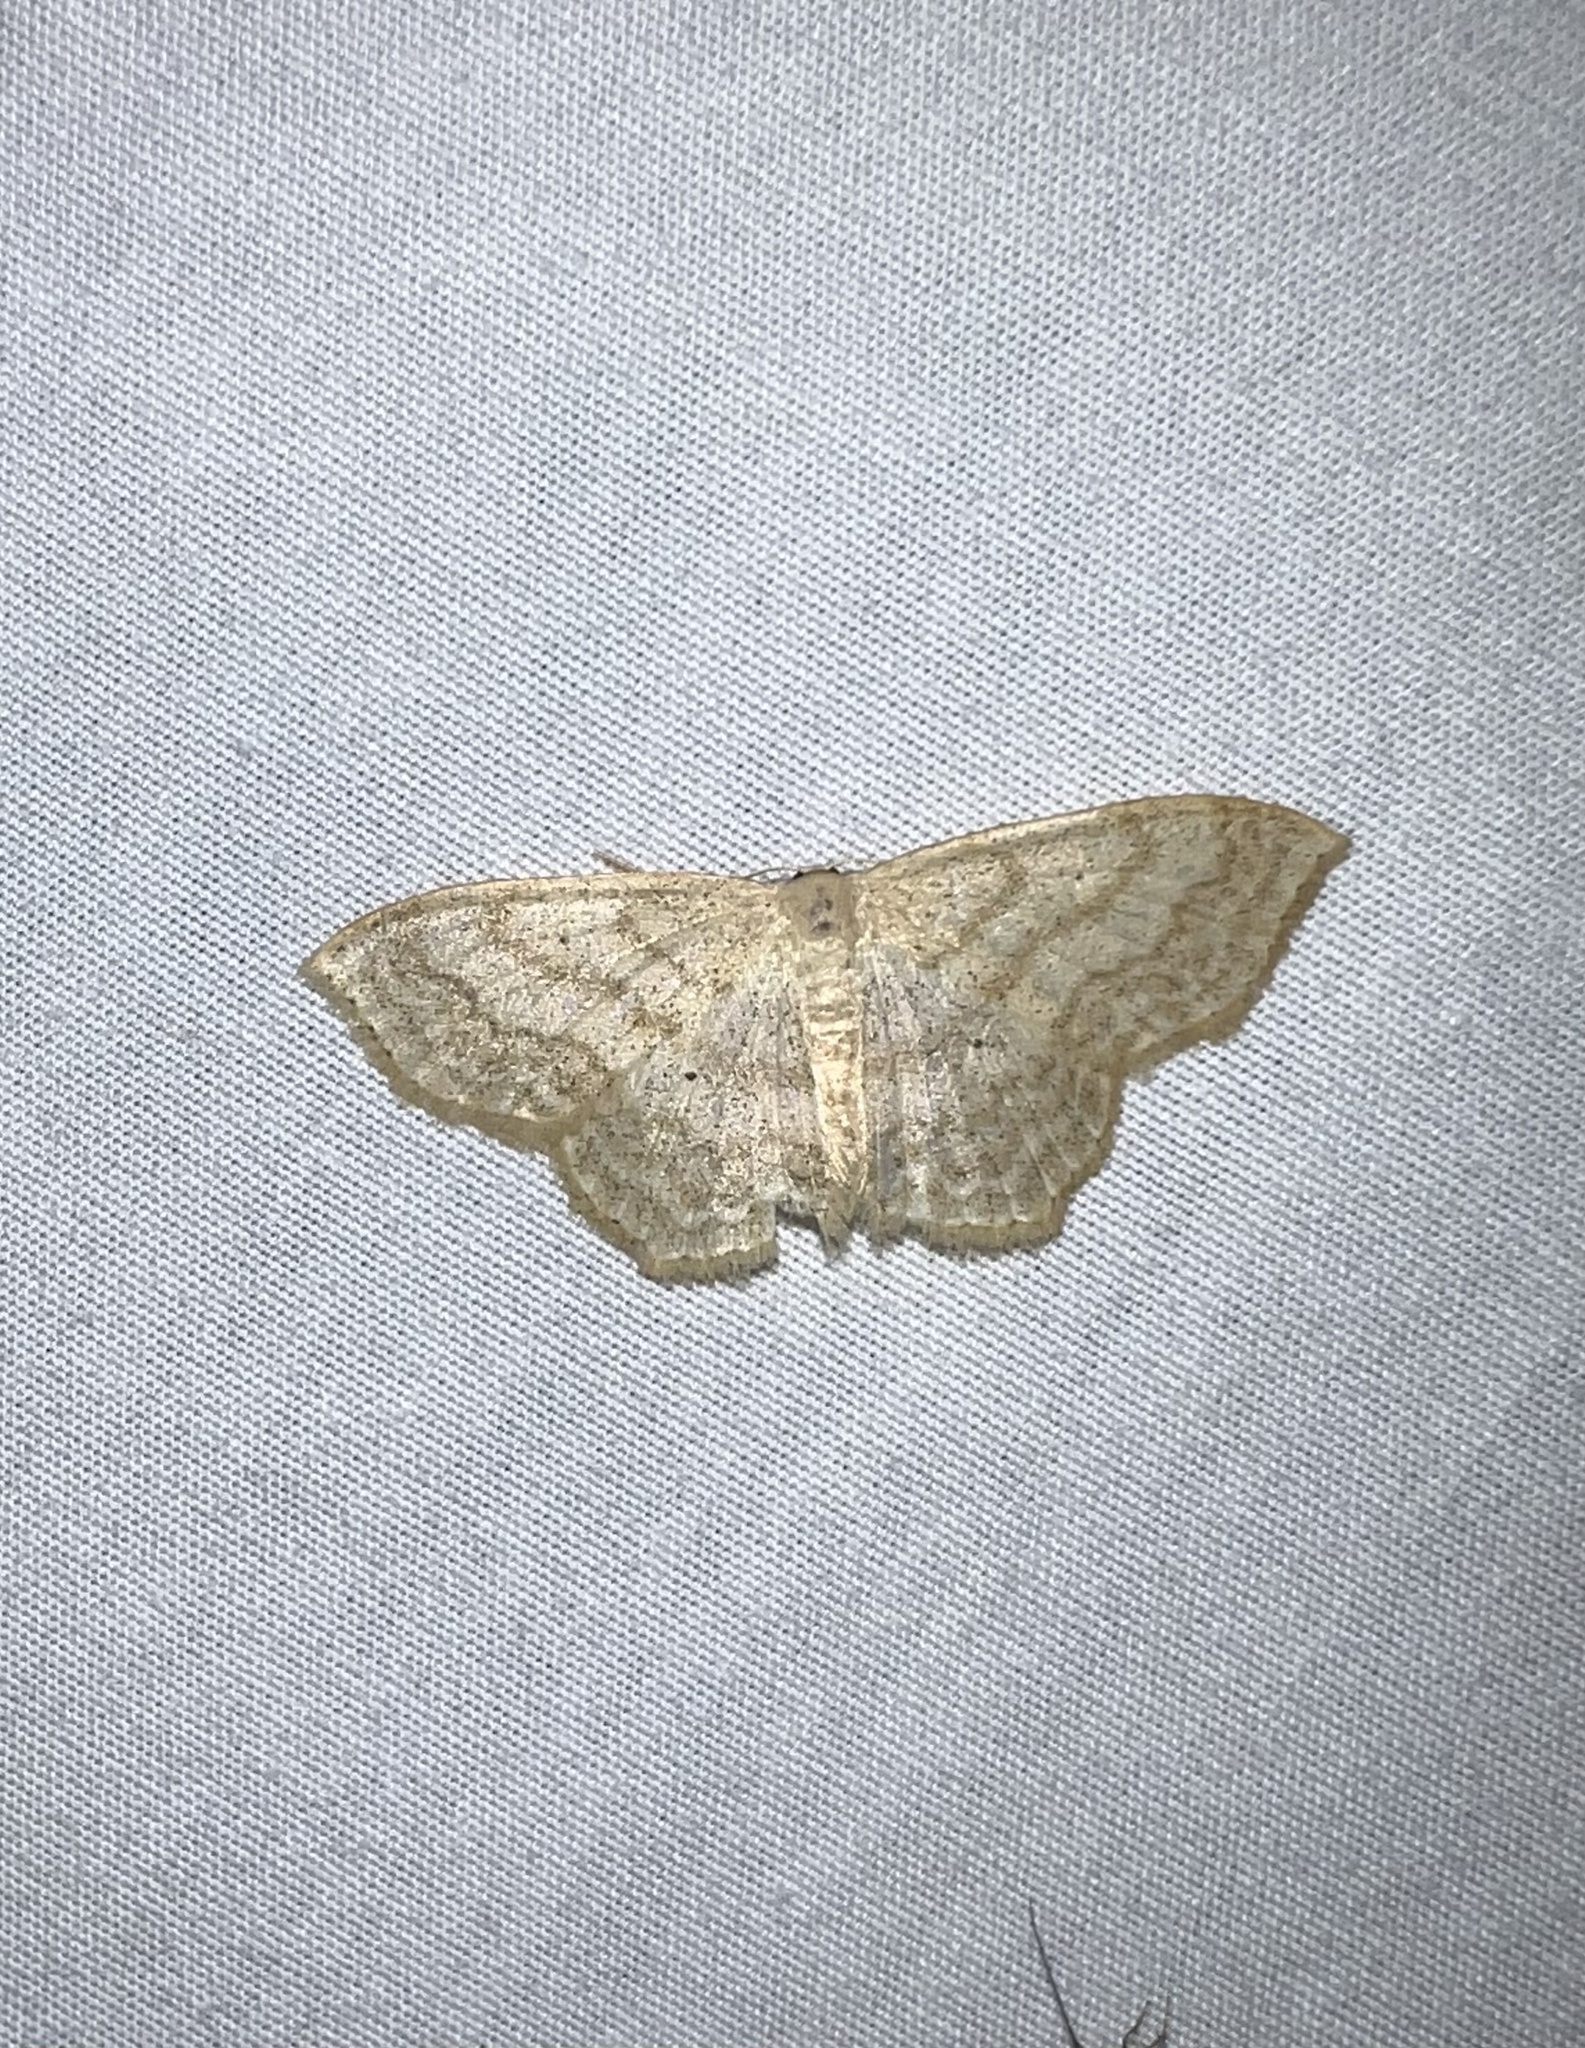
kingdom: Animalia
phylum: Arthropoda
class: Insecta
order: Lepidoptera
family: Geometridae
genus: Scopula
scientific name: Scopula limboundata
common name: Large lace border
